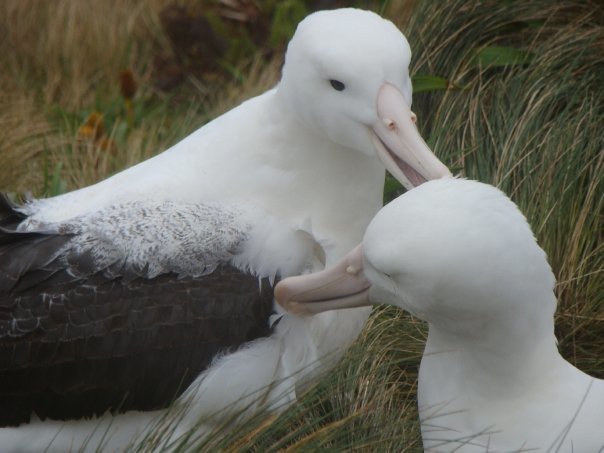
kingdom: Animalia
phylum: Chordata
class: Aves
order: Procellariiformes
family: Diomedeidae
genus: Diomedea
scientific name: Diomedea epomophora
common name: Southern royal albatross
